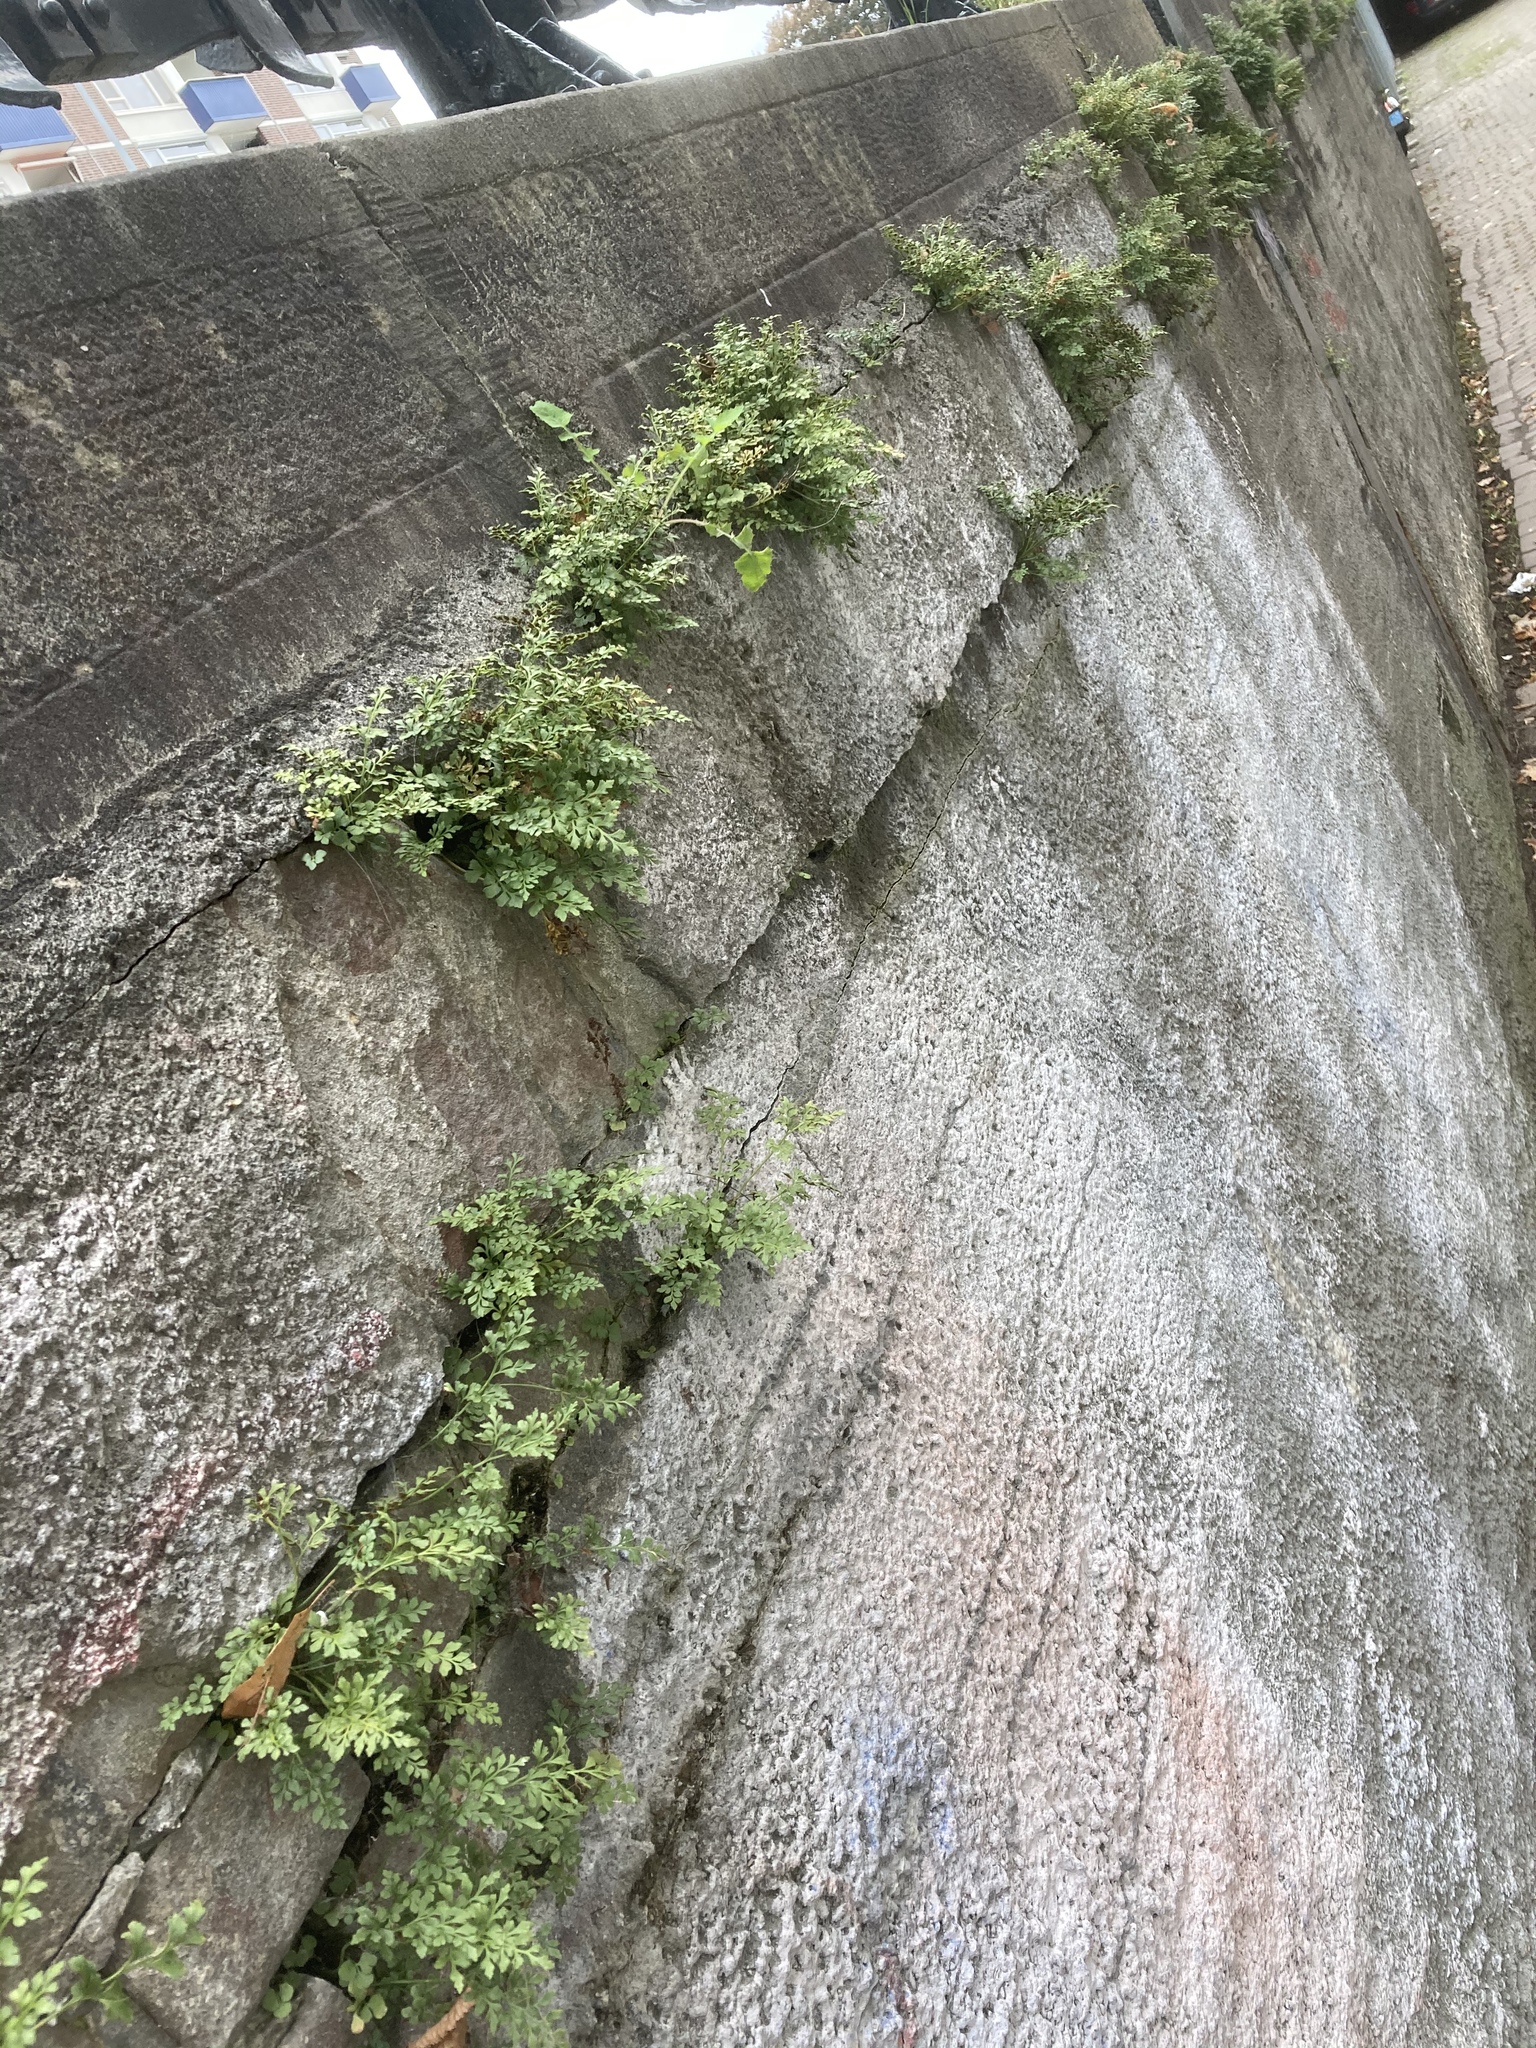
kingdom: Plantae
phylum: Tracheophyta
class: Polypodiopsida
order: Polypodiales
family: Aspleniaceae
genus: Asplenium
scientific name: Asplenium ruta-muraria
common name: Wall-rue
